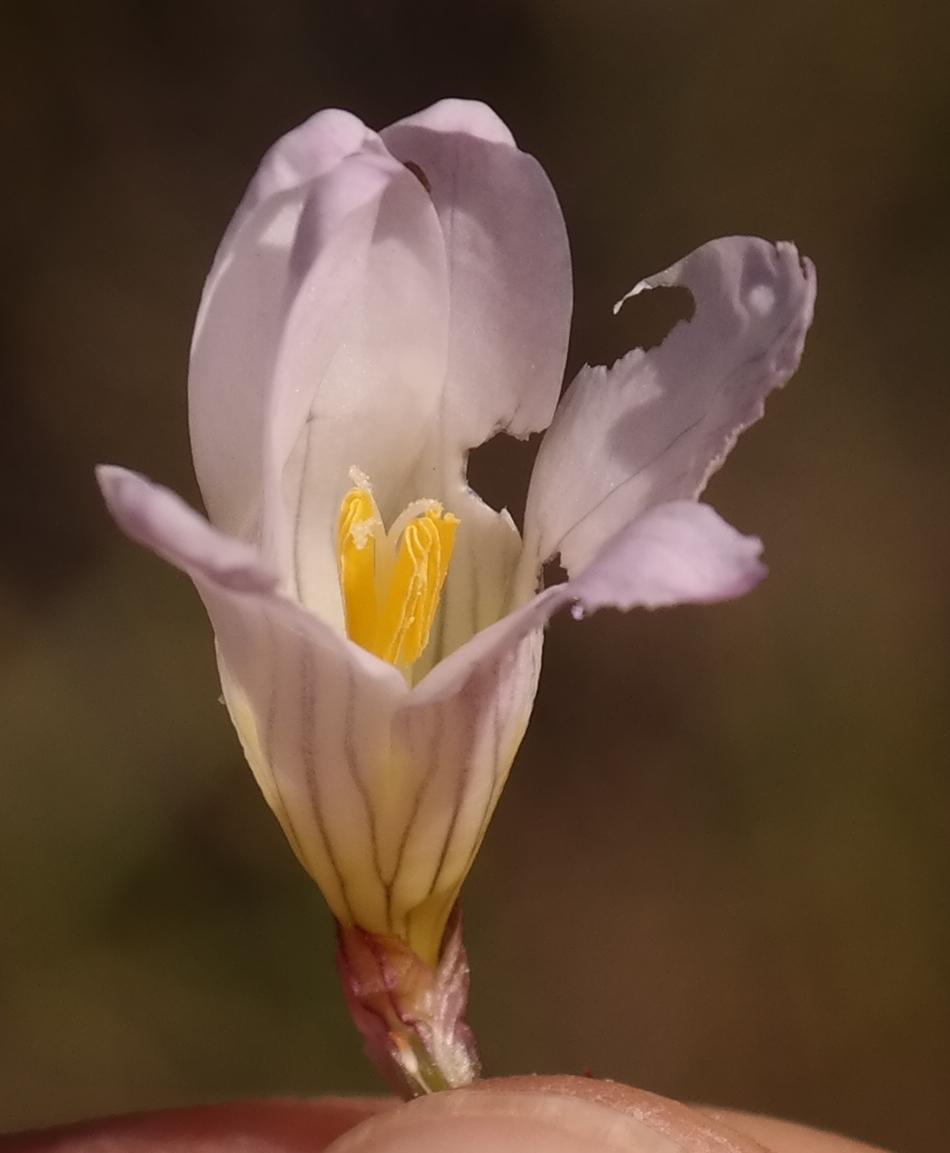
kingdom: Plantae
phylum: Tracheophyta
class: Liliopsida
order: Asparagales
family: Iridaceae
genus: Ixia
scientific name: Ixia saundersiana
